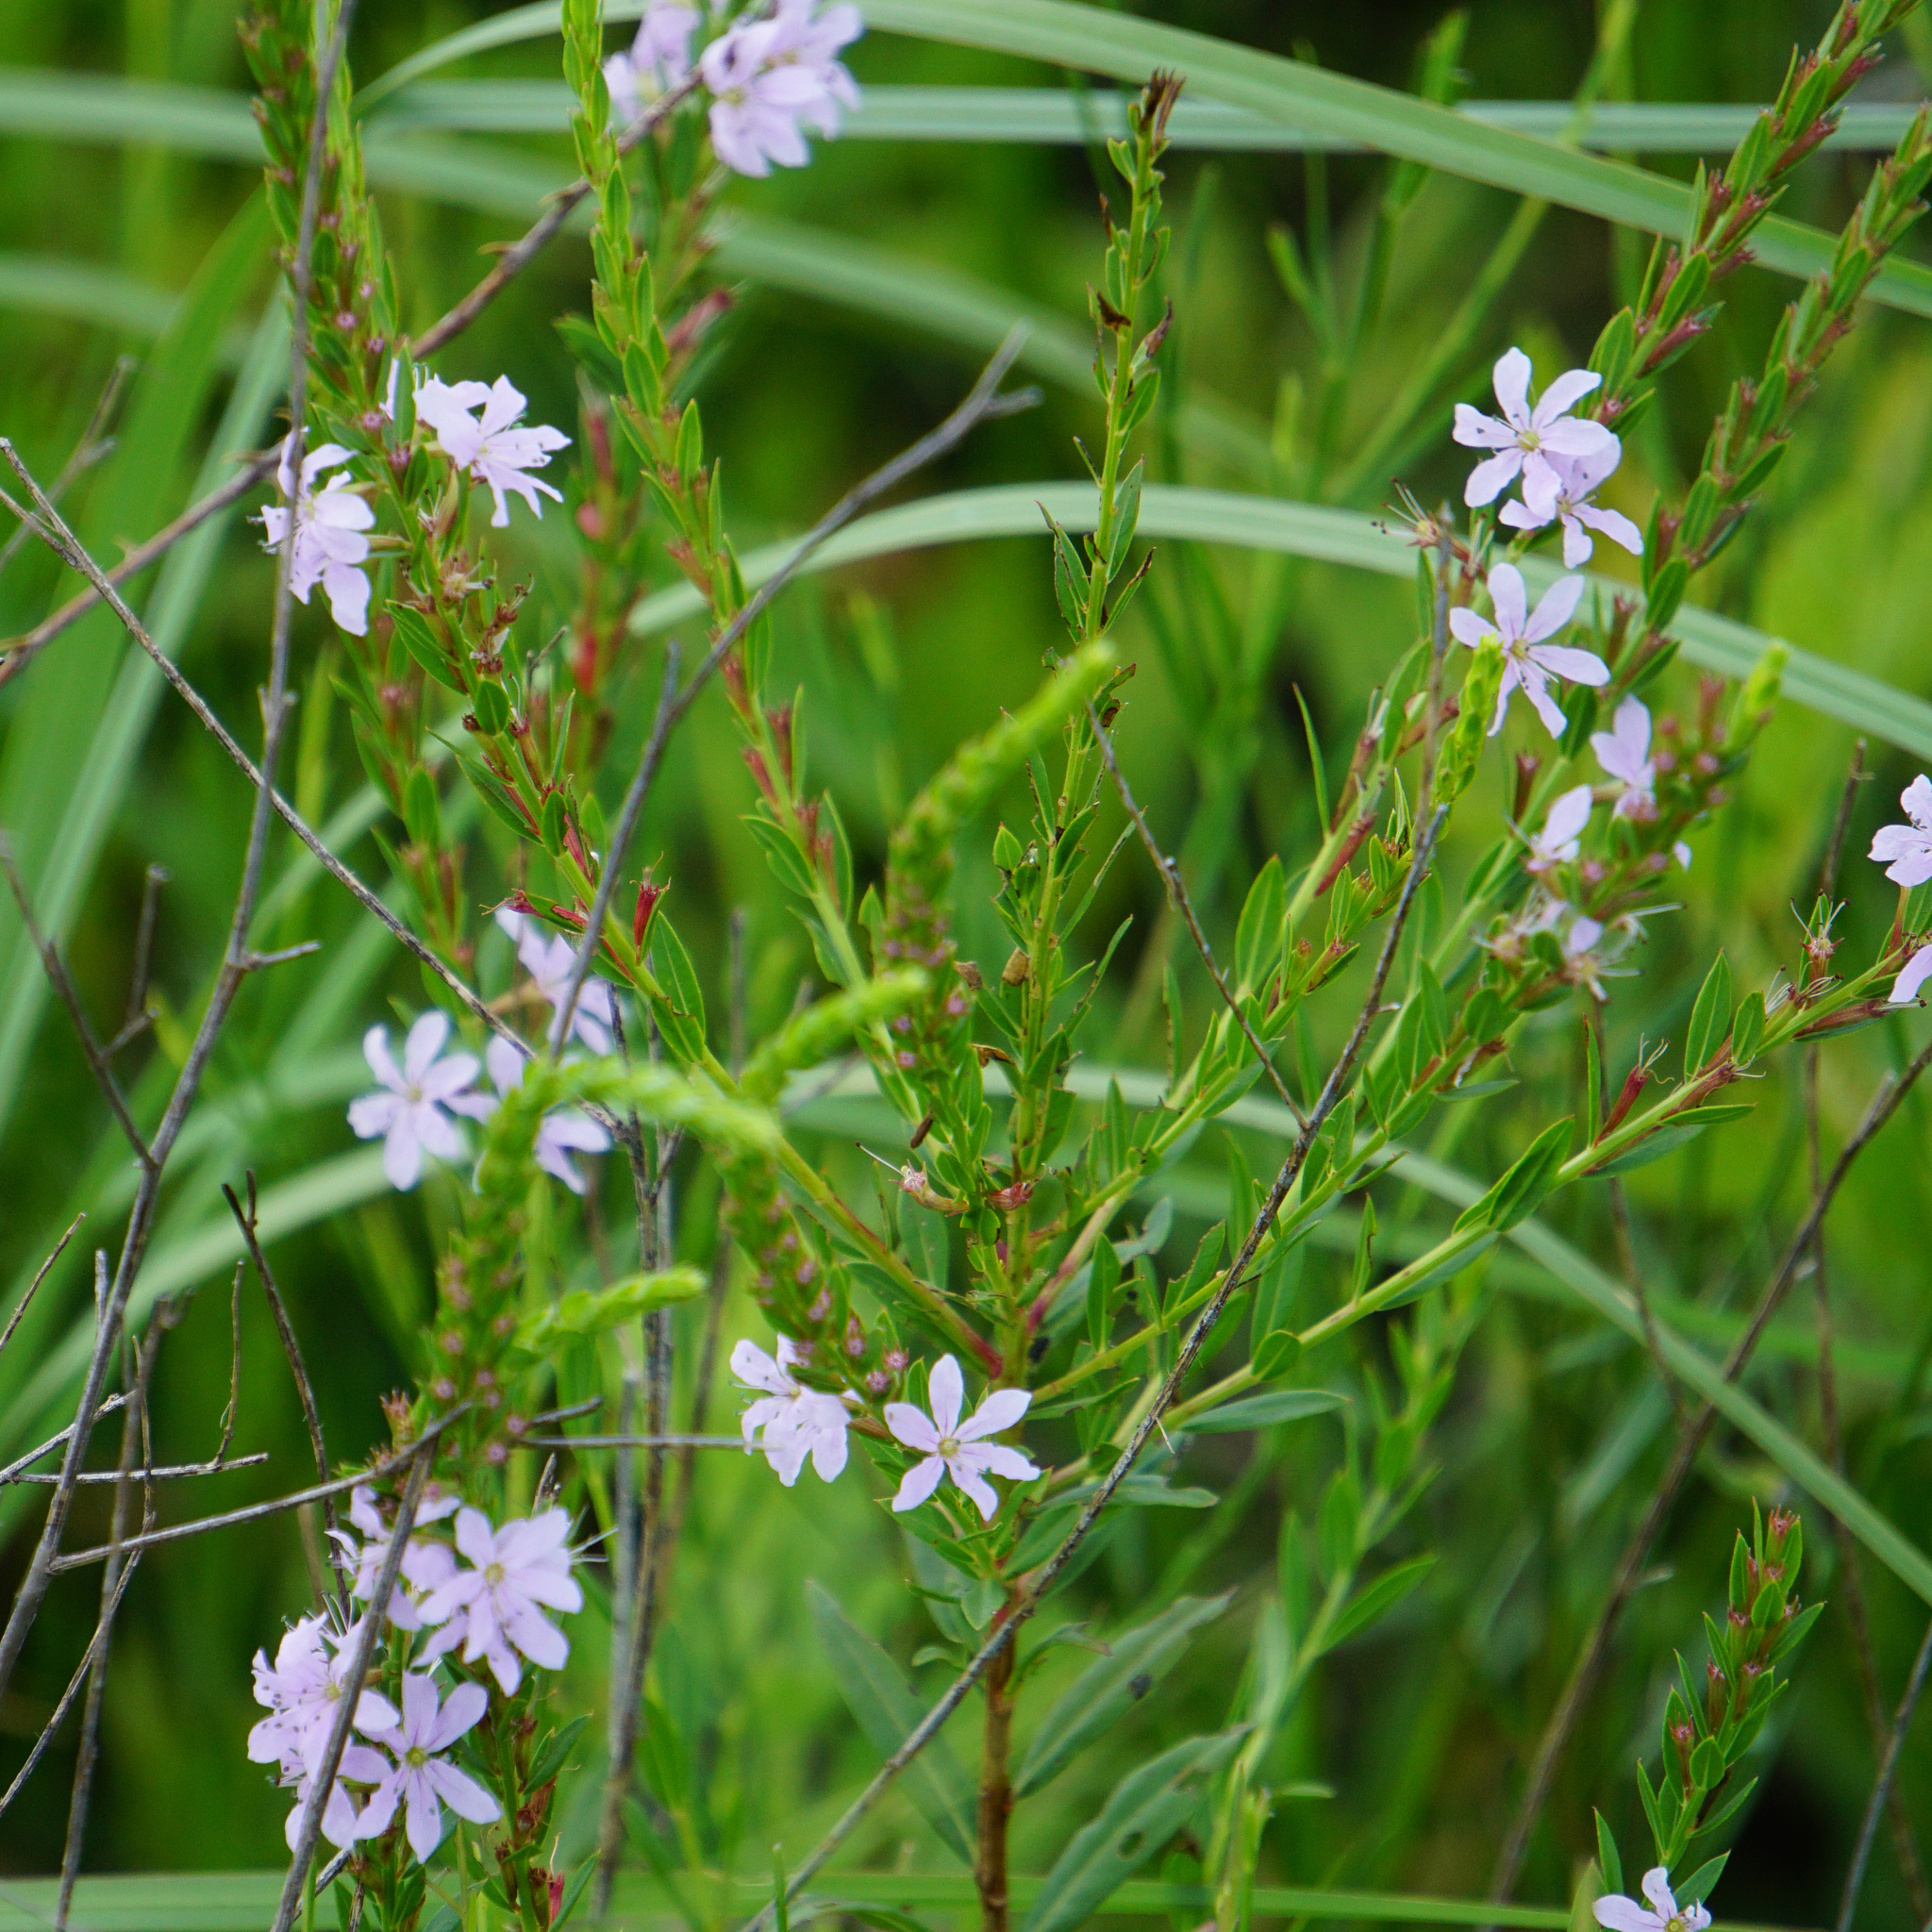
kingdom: Plantae
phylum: Tracheophyta
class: Magnoliopsida
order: Myrtales
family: Lythraceae
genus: Lythrum
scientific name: Lythrum alatum
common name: Winged loosestrife
